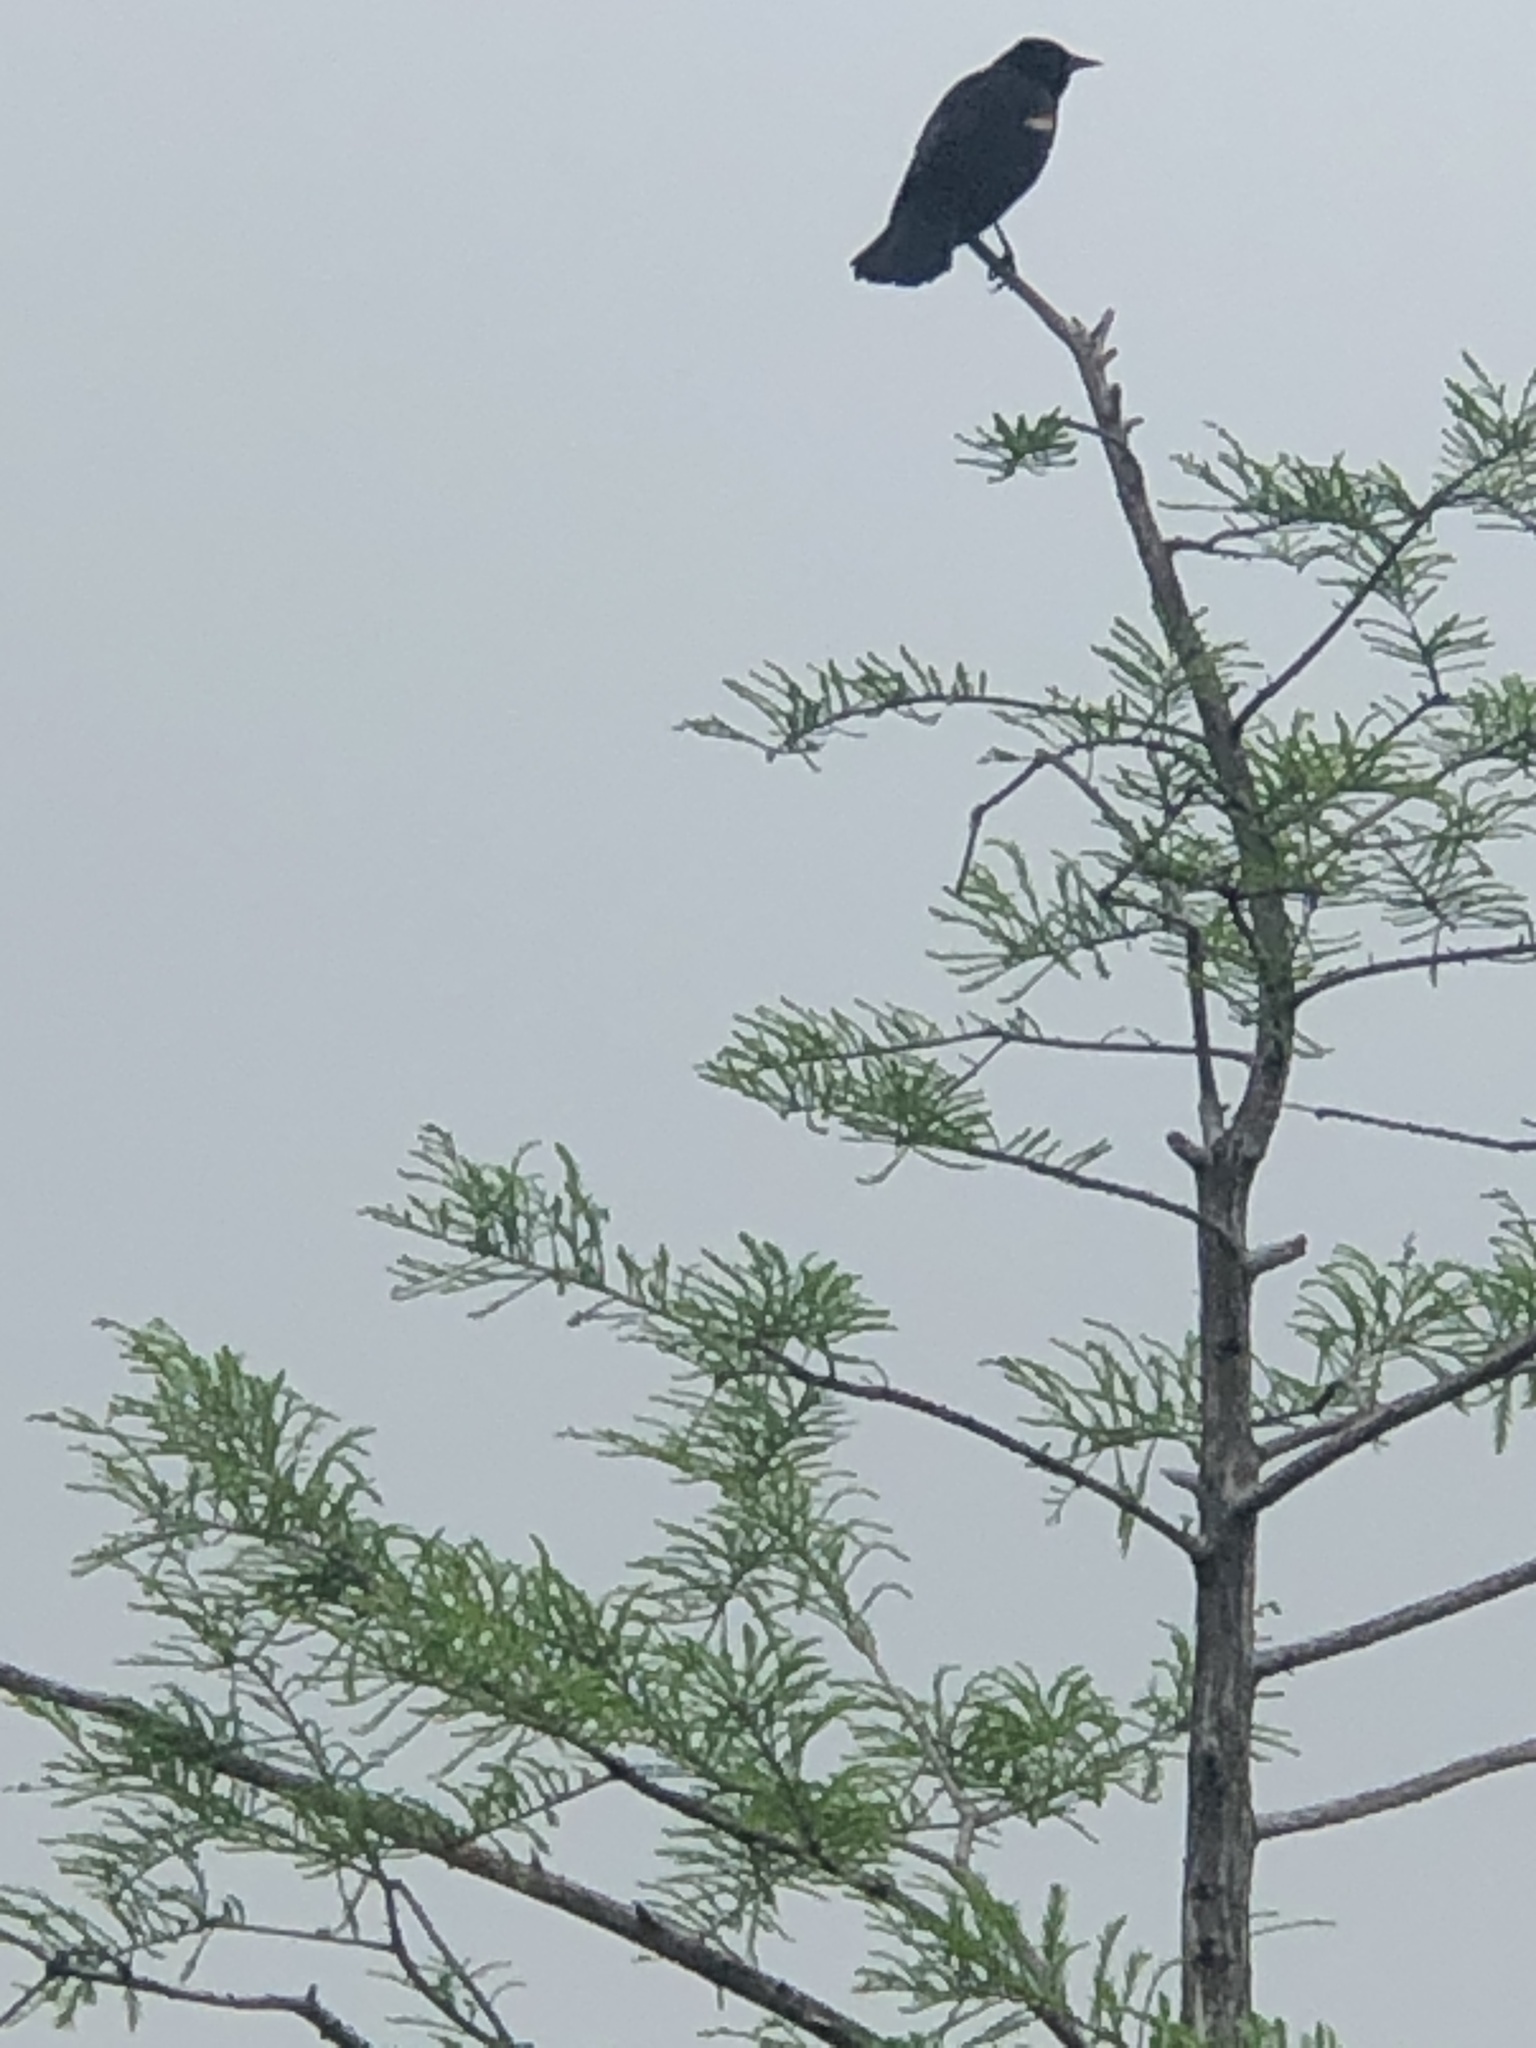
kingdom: Animalia
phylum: Chordata
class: Aves
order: Passeriformes
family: Icteridae
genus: Agelaius
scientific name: Agelaius phoeniceus
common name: Red-winged blackbird
